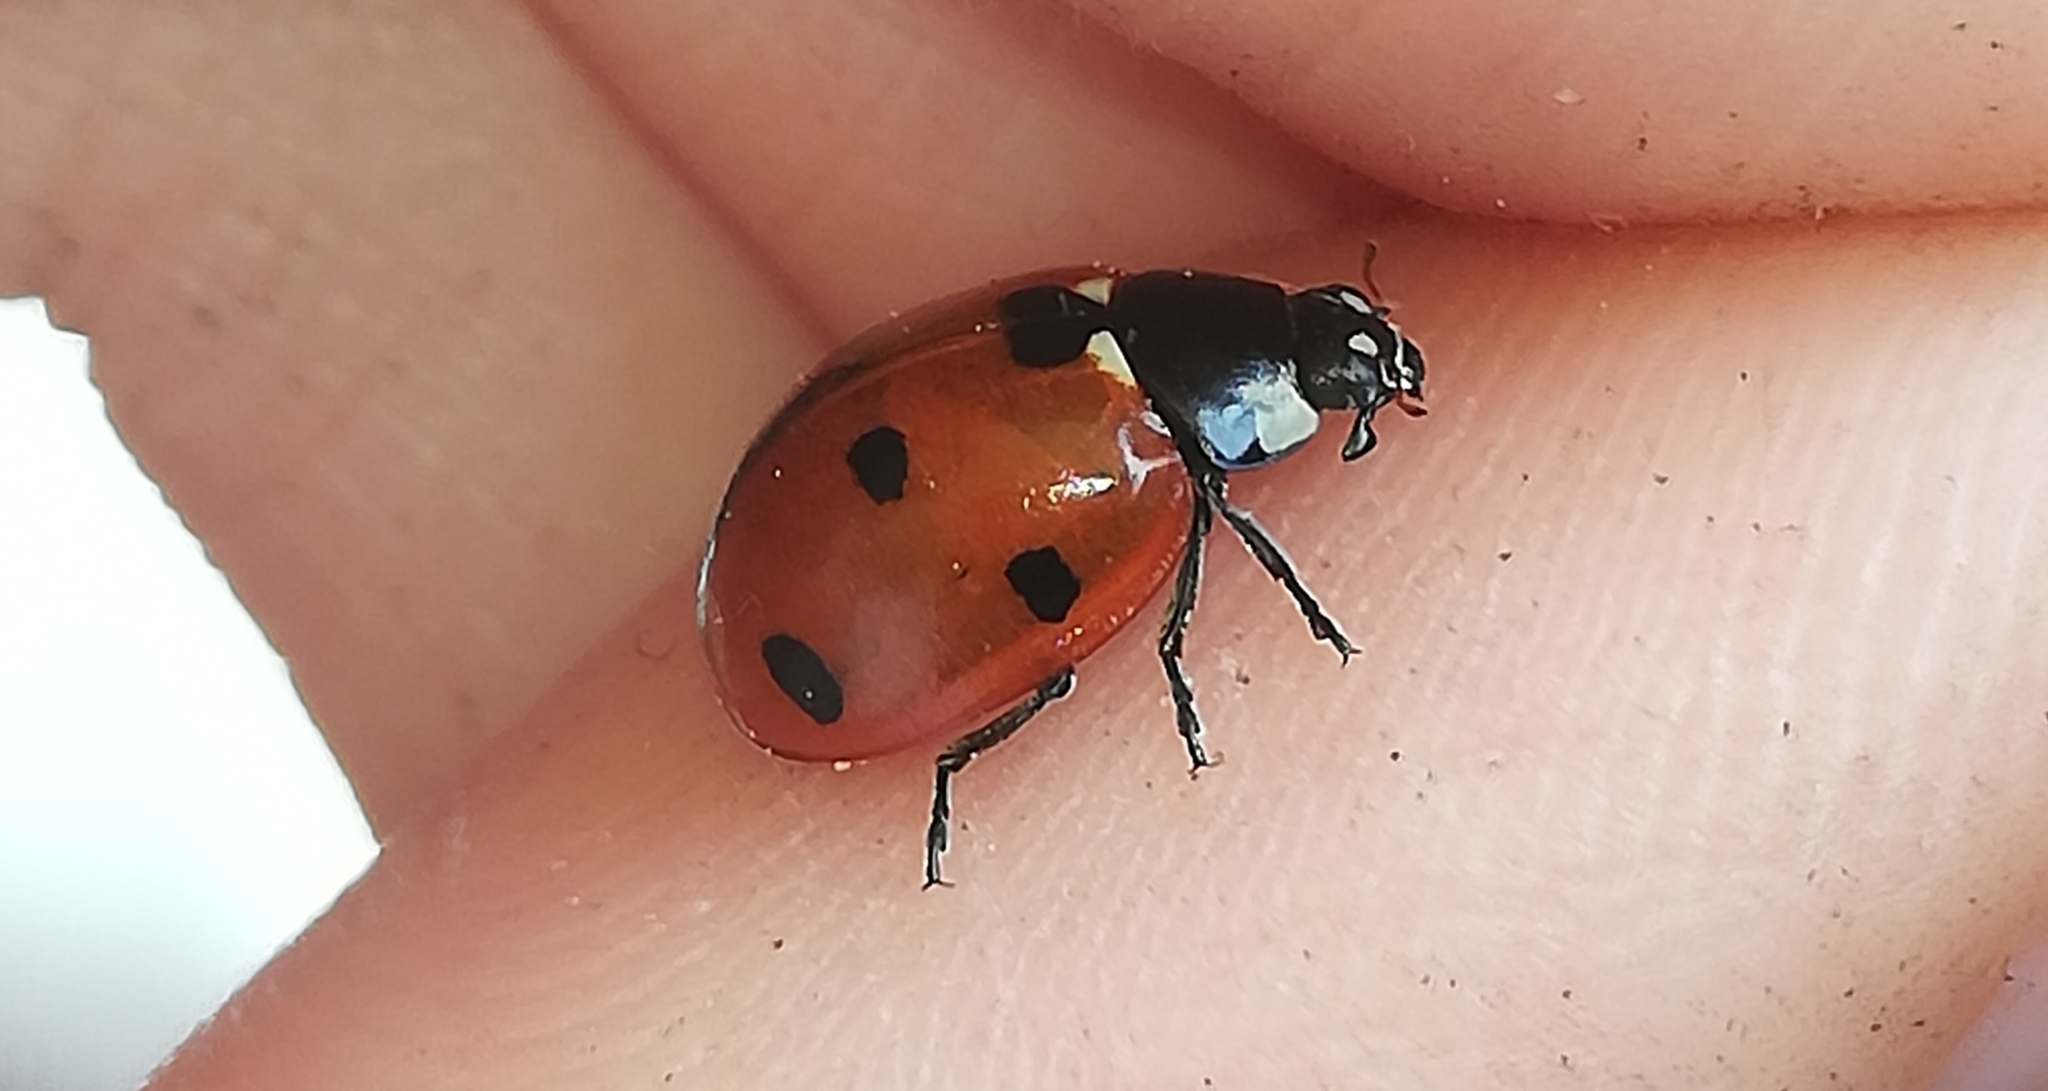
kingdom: Animalia
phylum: Arthropoda
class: Insecta
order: Coleoptera
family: Coccinellidae
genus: Coccinella
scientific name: Coccinella septempunctata
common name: Sevenspotted lady beetle
